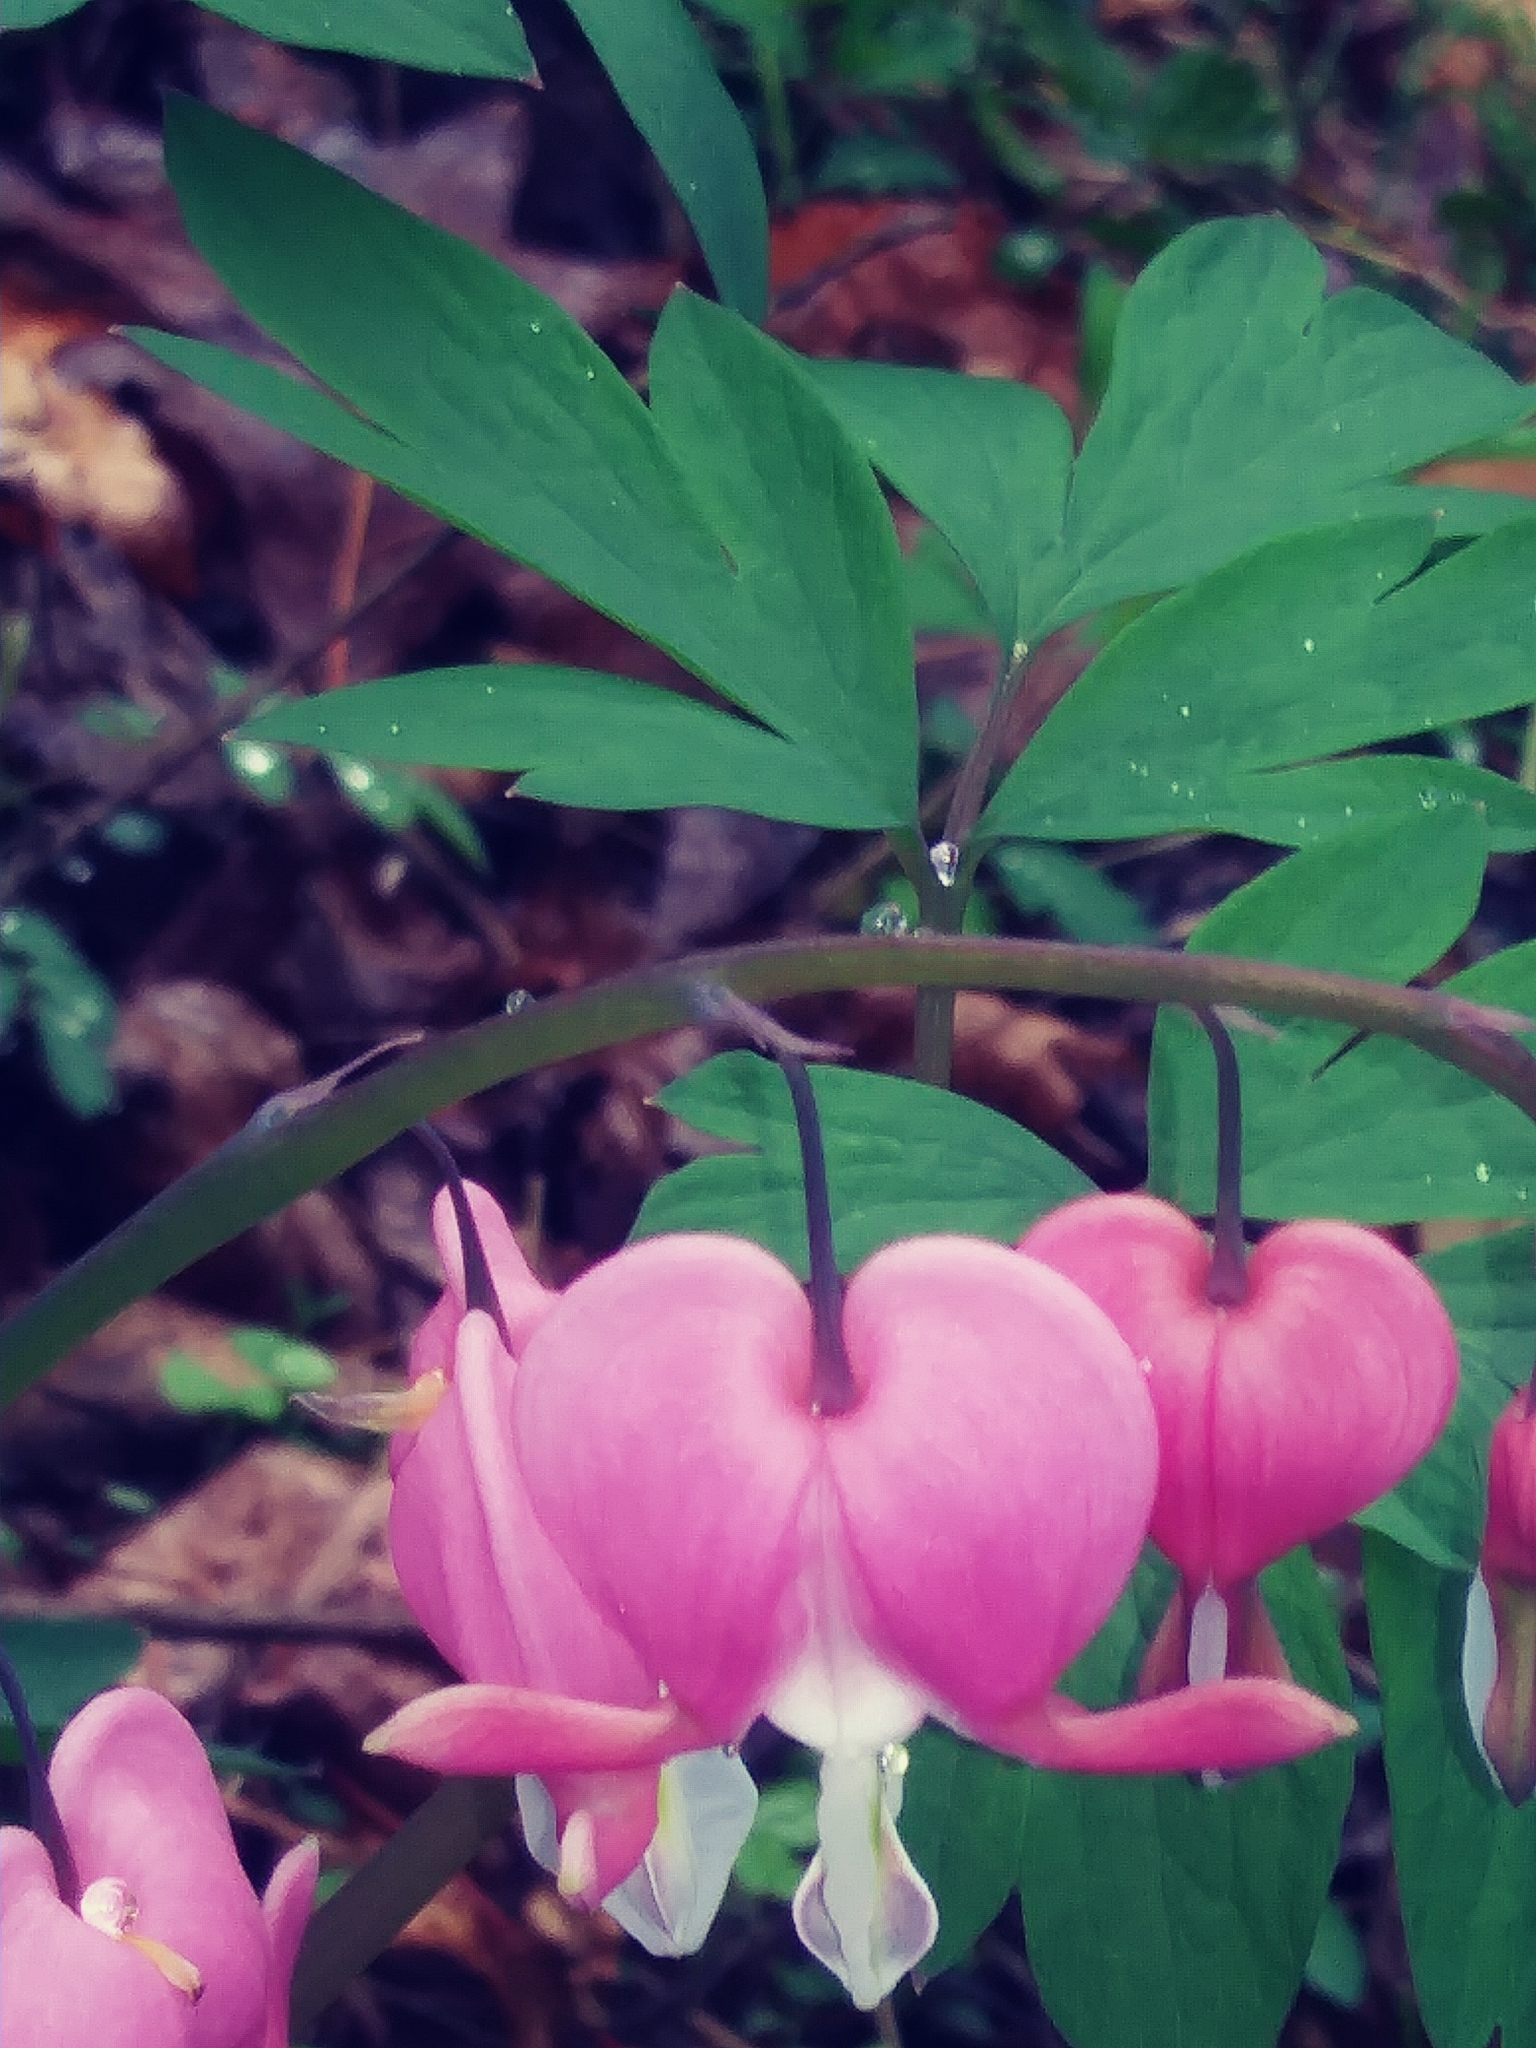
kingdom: Plantae
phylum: Tracheophyta
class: Magnoliopsida
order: Ranunculales
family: Papaveraceae
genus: Lamprocapnos
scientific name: Lamprocapnos spectabilis
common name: Asian bleeding-heart
